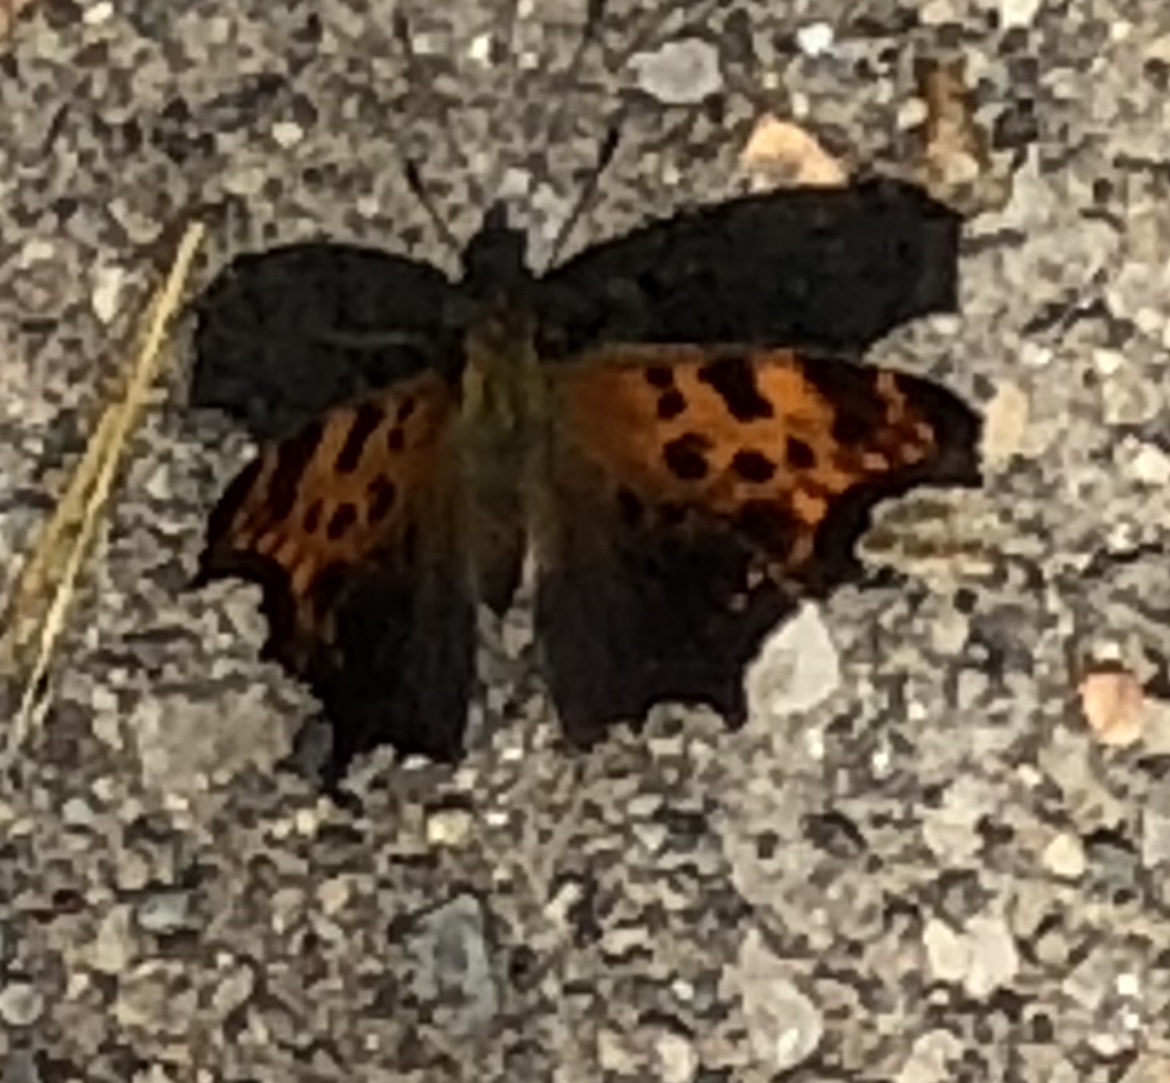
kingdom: Animalia
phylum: Arthropoda
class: Insecta
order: Lepidoptera
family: Nymphalidae
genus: Polygonia
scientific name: Polygonia comma
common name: Eastern comma
